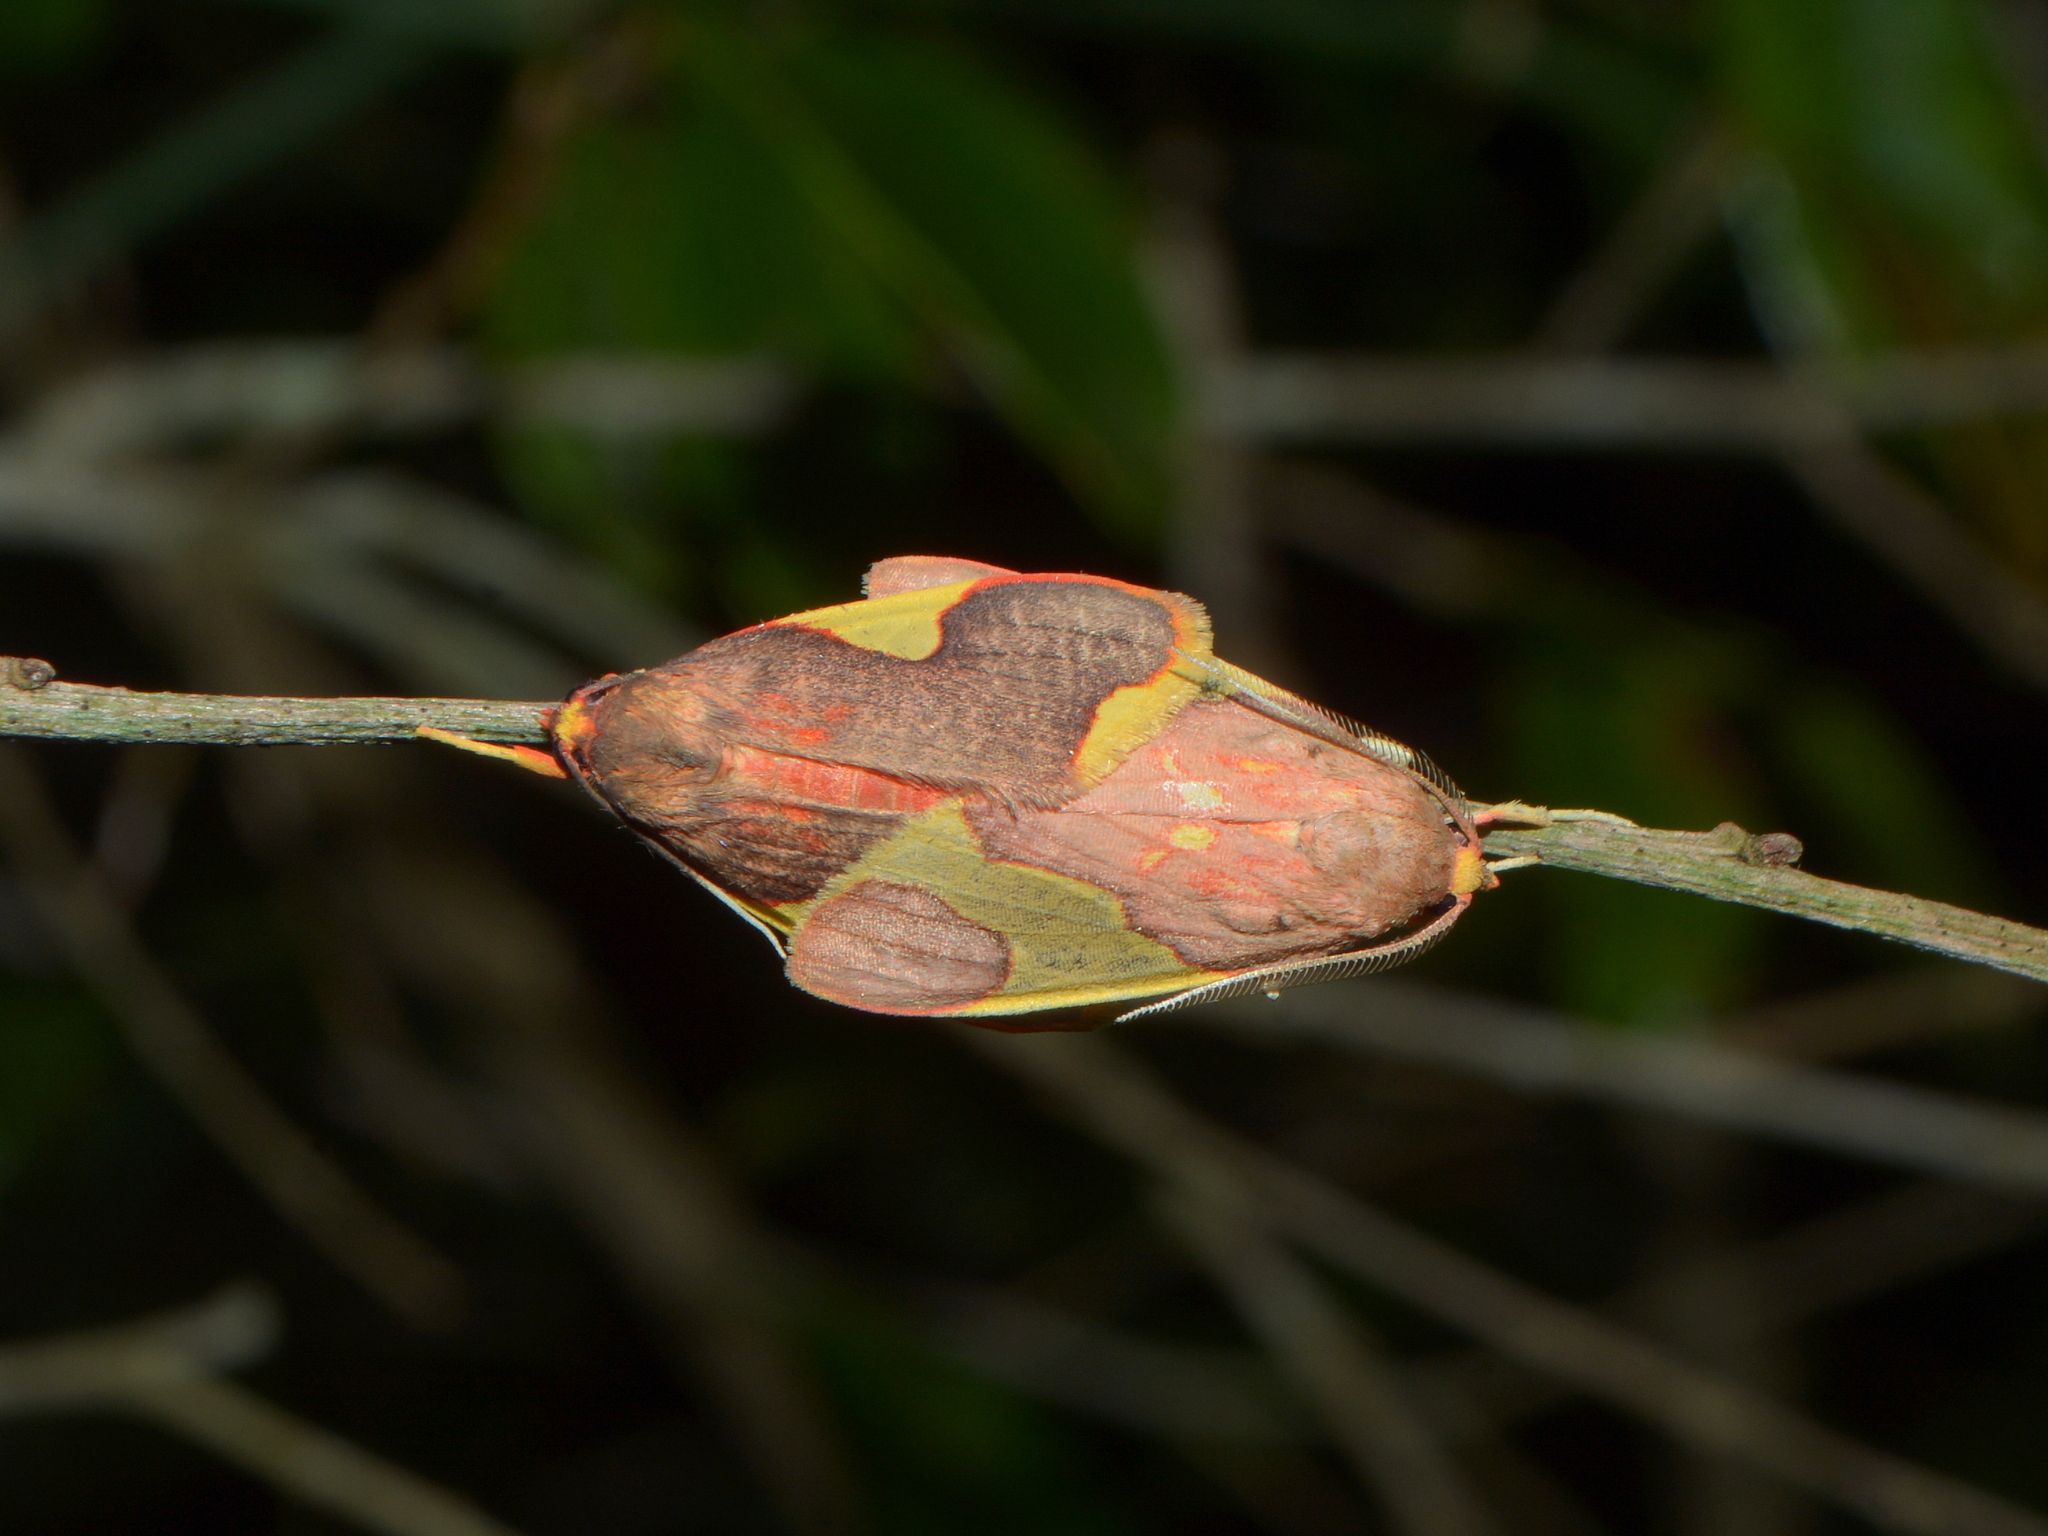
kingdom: Animalia
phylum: Arthropoda
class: Insecta
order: Lepidoptera
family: Erebidae
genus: Trichromia
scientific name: Trichromia
